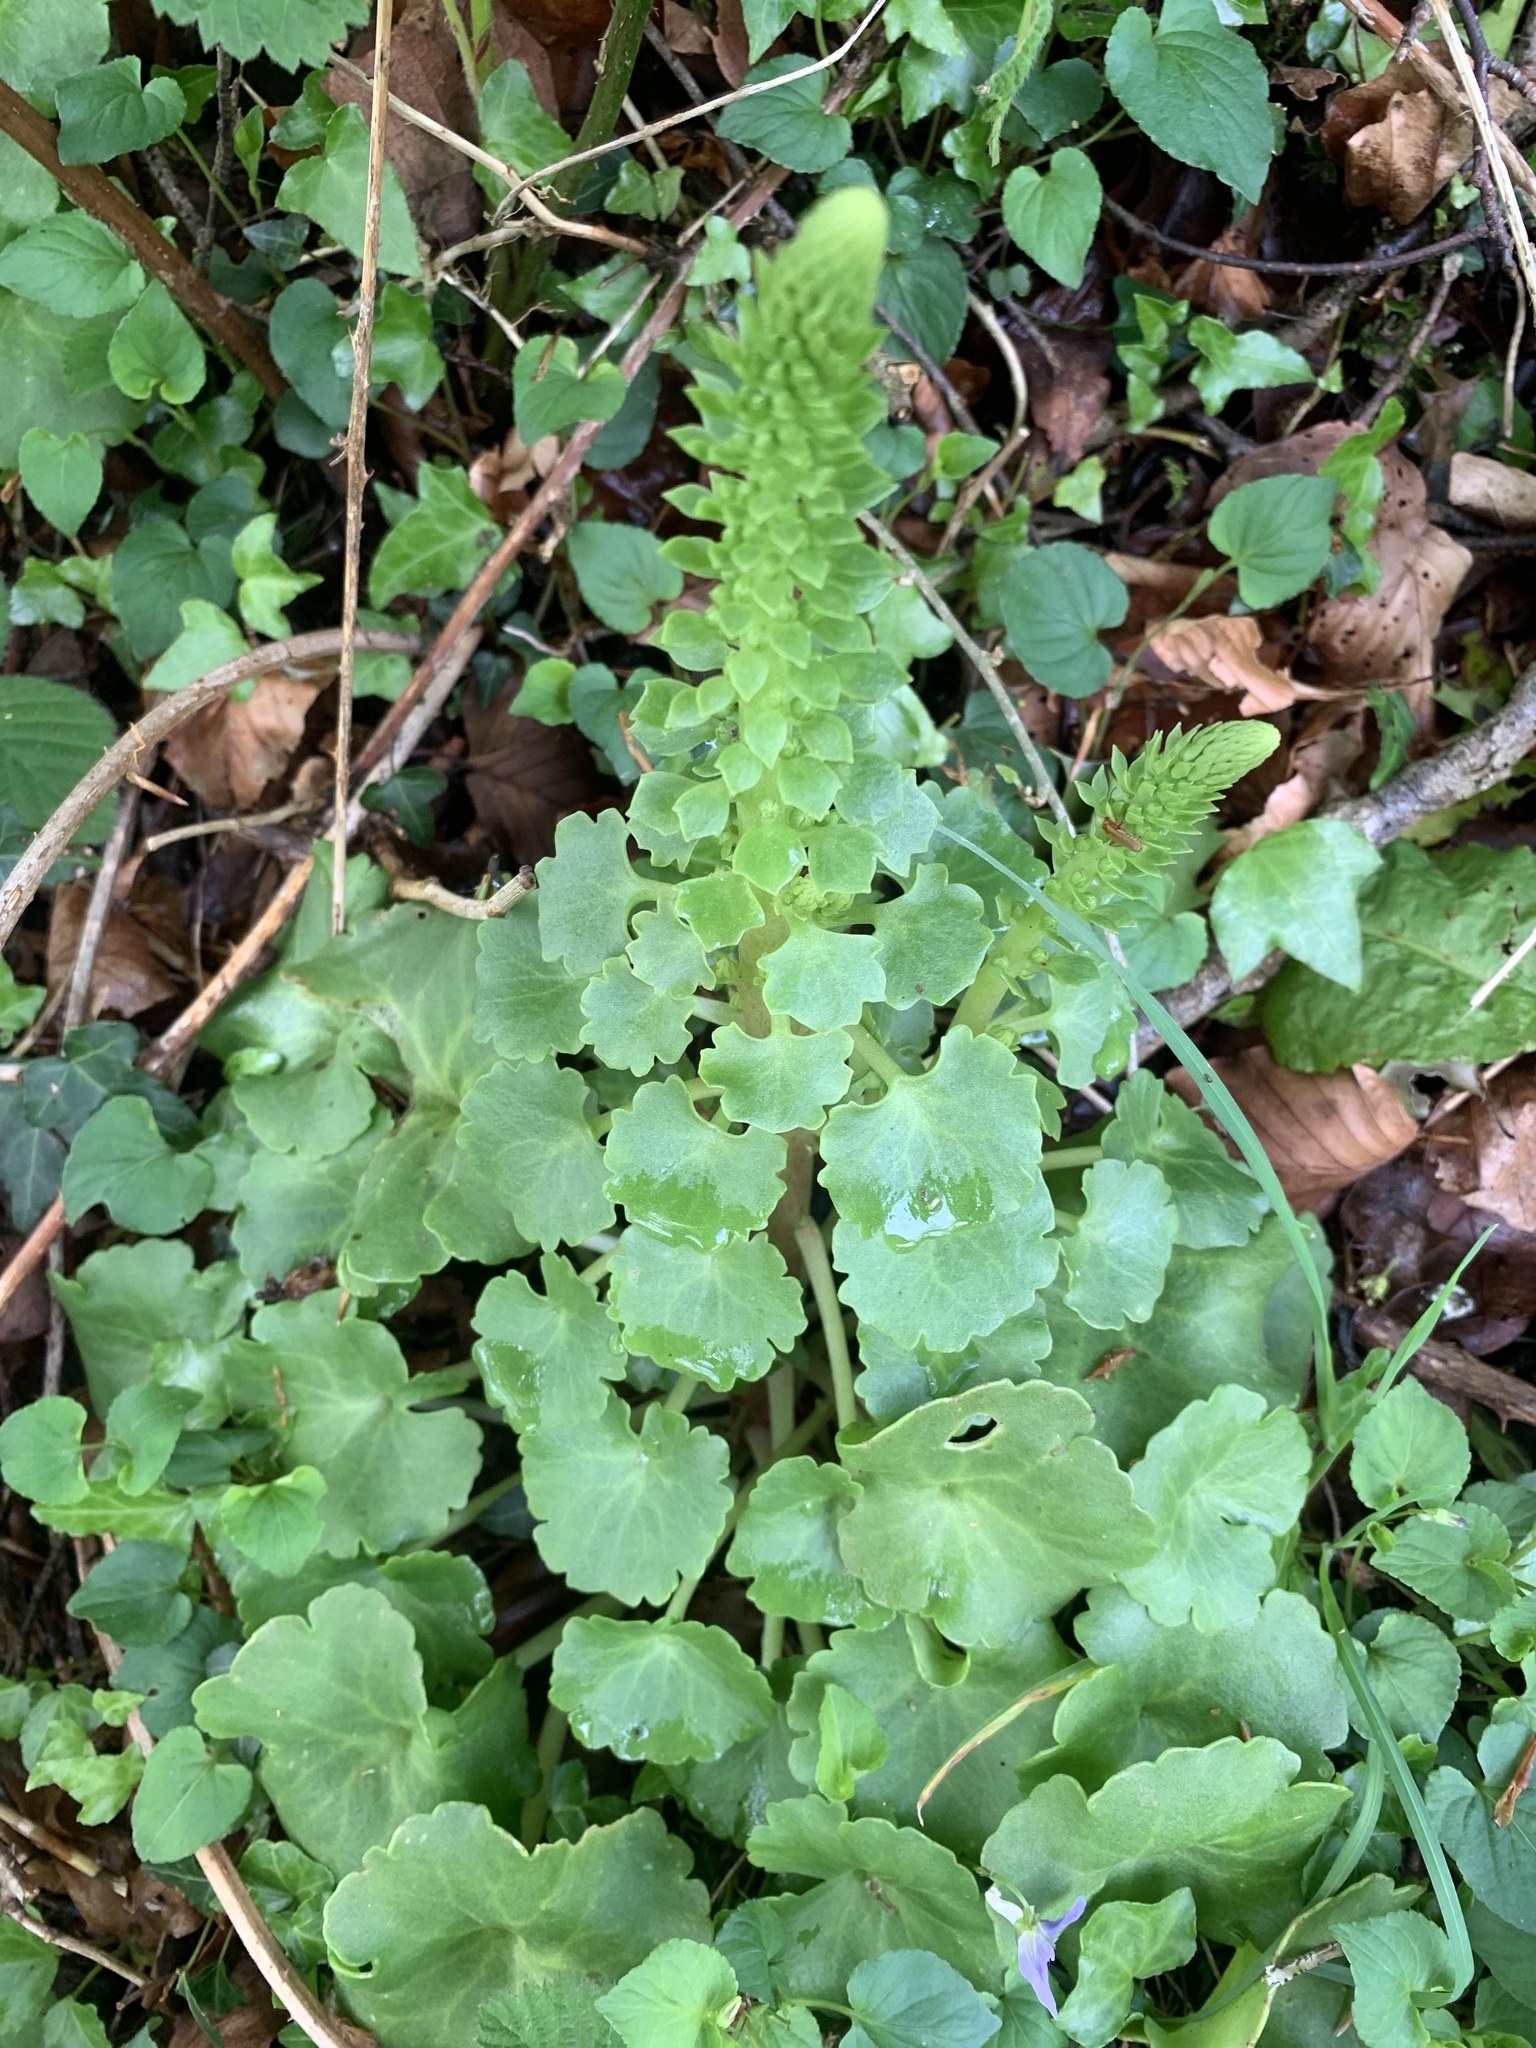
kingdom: Plantae
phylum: Tracheophyta
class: Magnoliopsida
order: Saxifragales
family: Crassulaceae
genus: Umbilicus
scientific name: Umbilicus rupestris
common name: Navelwort
